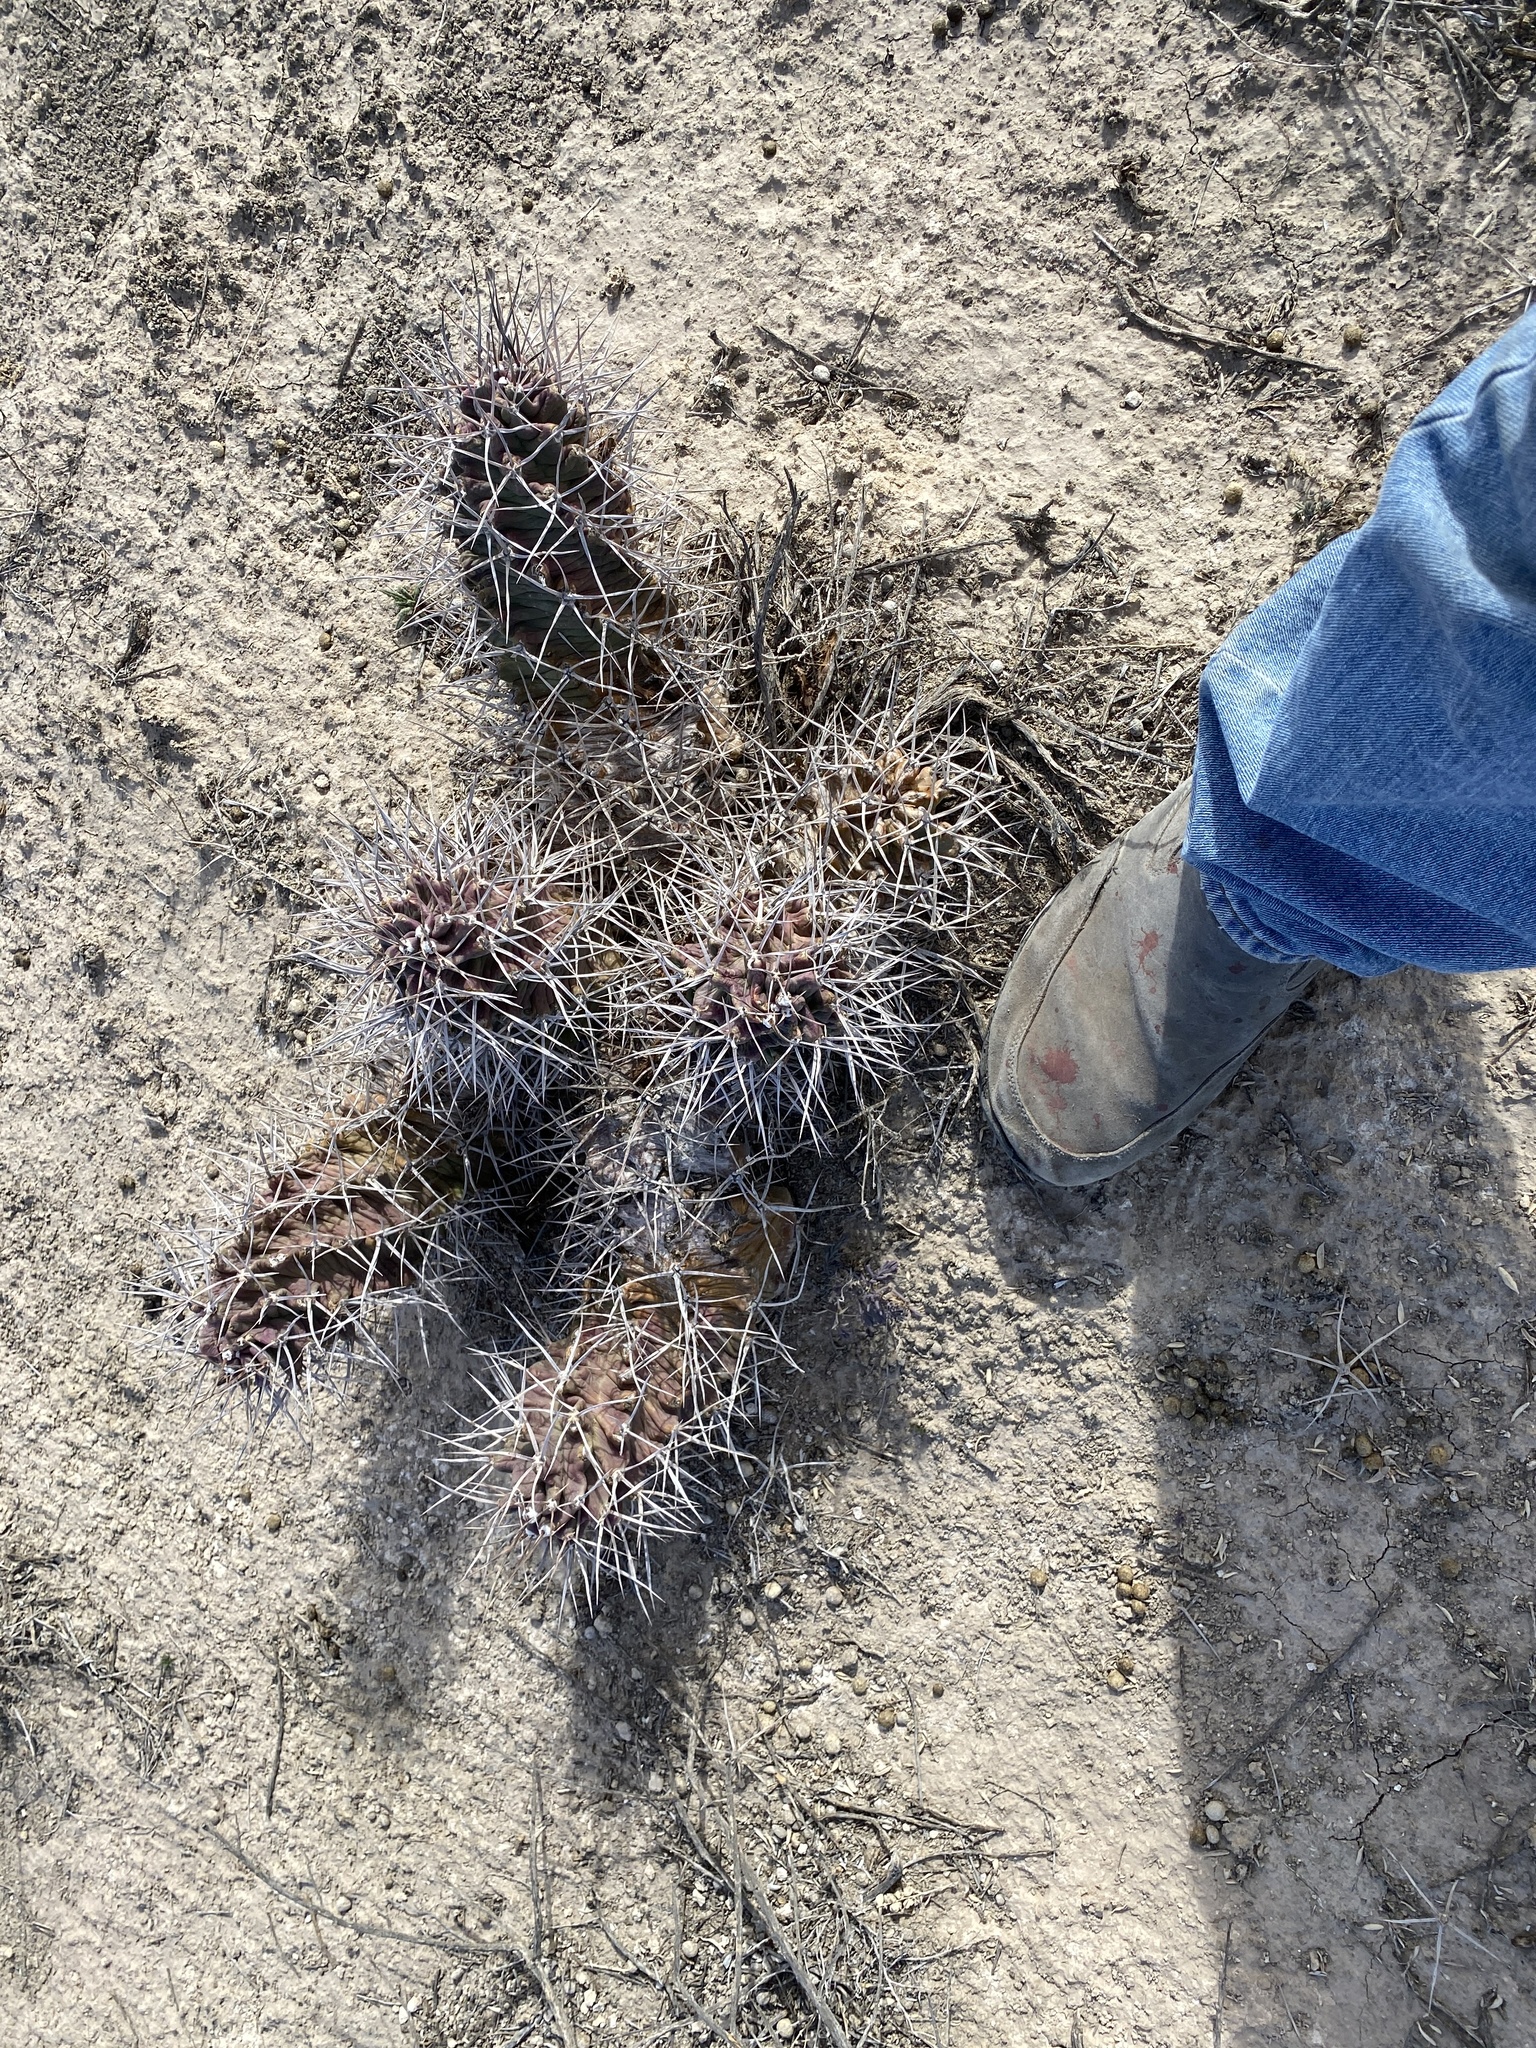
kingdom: Plantae
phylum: Tracheophyta
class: Magnoliopsida
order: Caryophyllales
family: Cactaceae
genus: Echinocereus
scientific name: Echinocereus triglochidiatus
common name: Claretcup hedgehog
